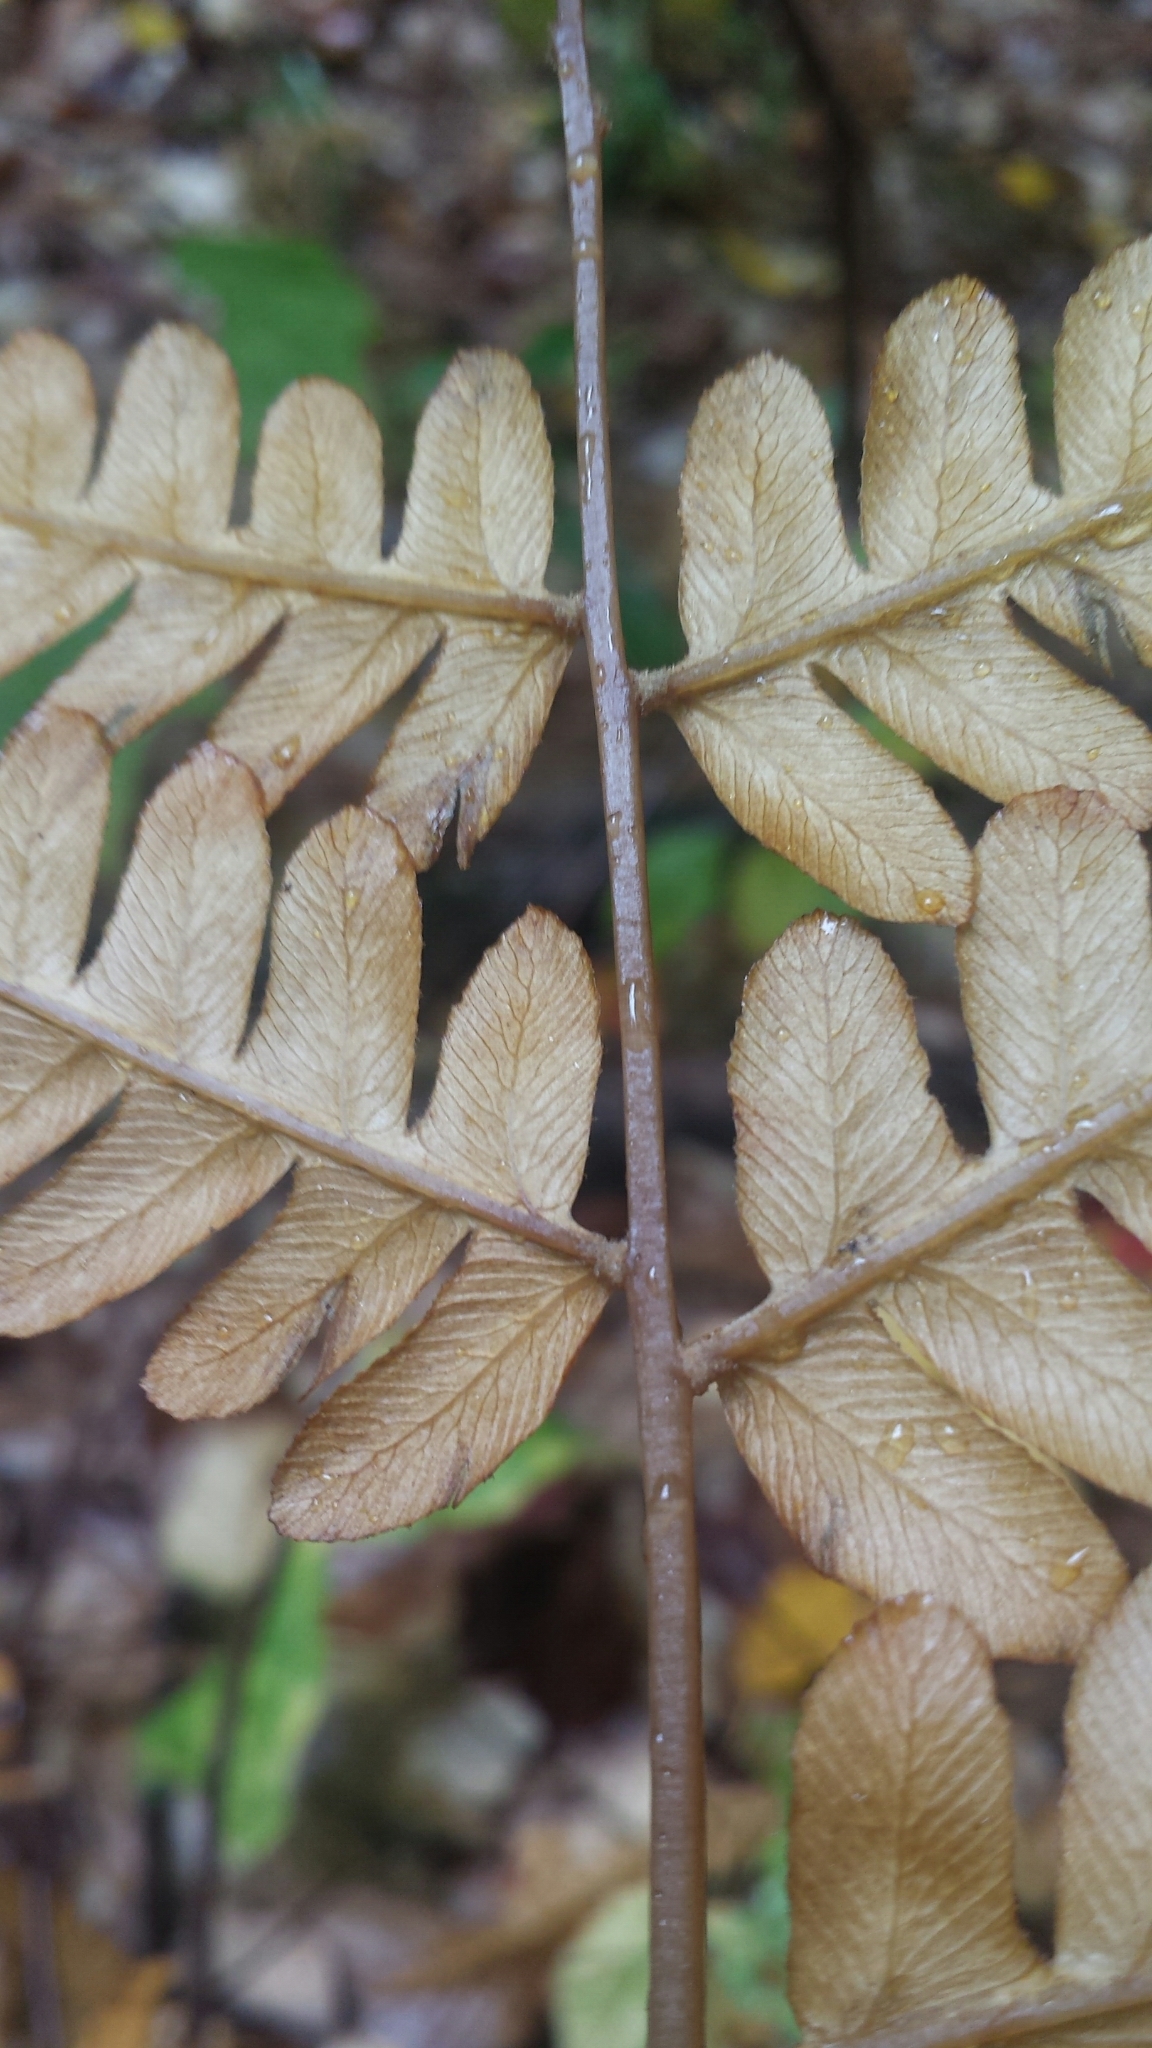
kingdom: Plantae
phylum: Tracheophyta
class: Polypodiopsida
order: Osmundales
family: Osmundaceae
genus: Osmundastrum
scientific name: Osmundastrum cinnamomeum
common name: Cinnamon fern
